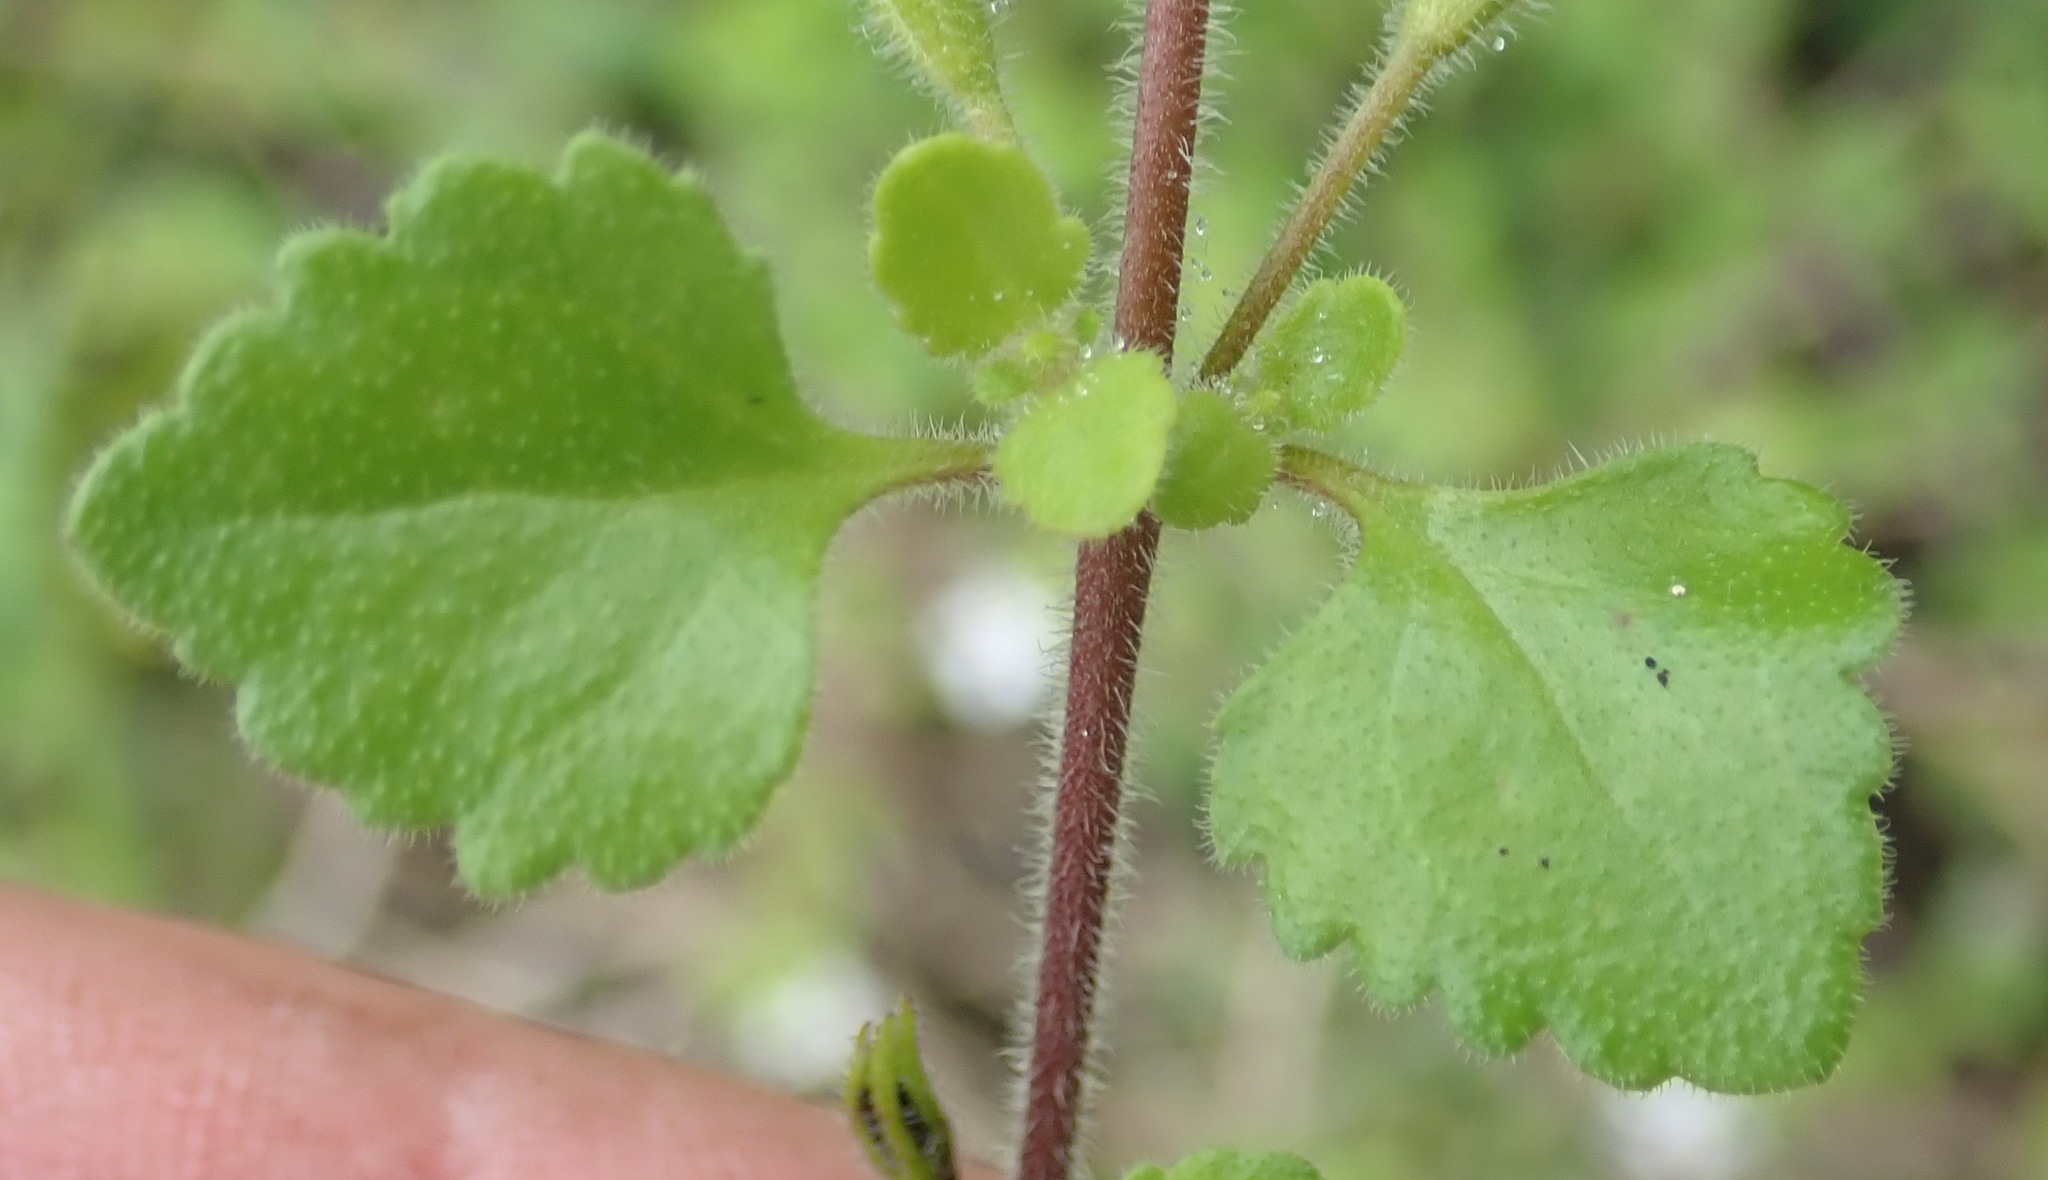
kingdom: Plantae
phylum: Tracheophyta
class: Magnoliopsida
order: Lamiales
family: Scrophulariaceae
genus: Chaenostoma
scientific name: Chaenostoma cordatum
